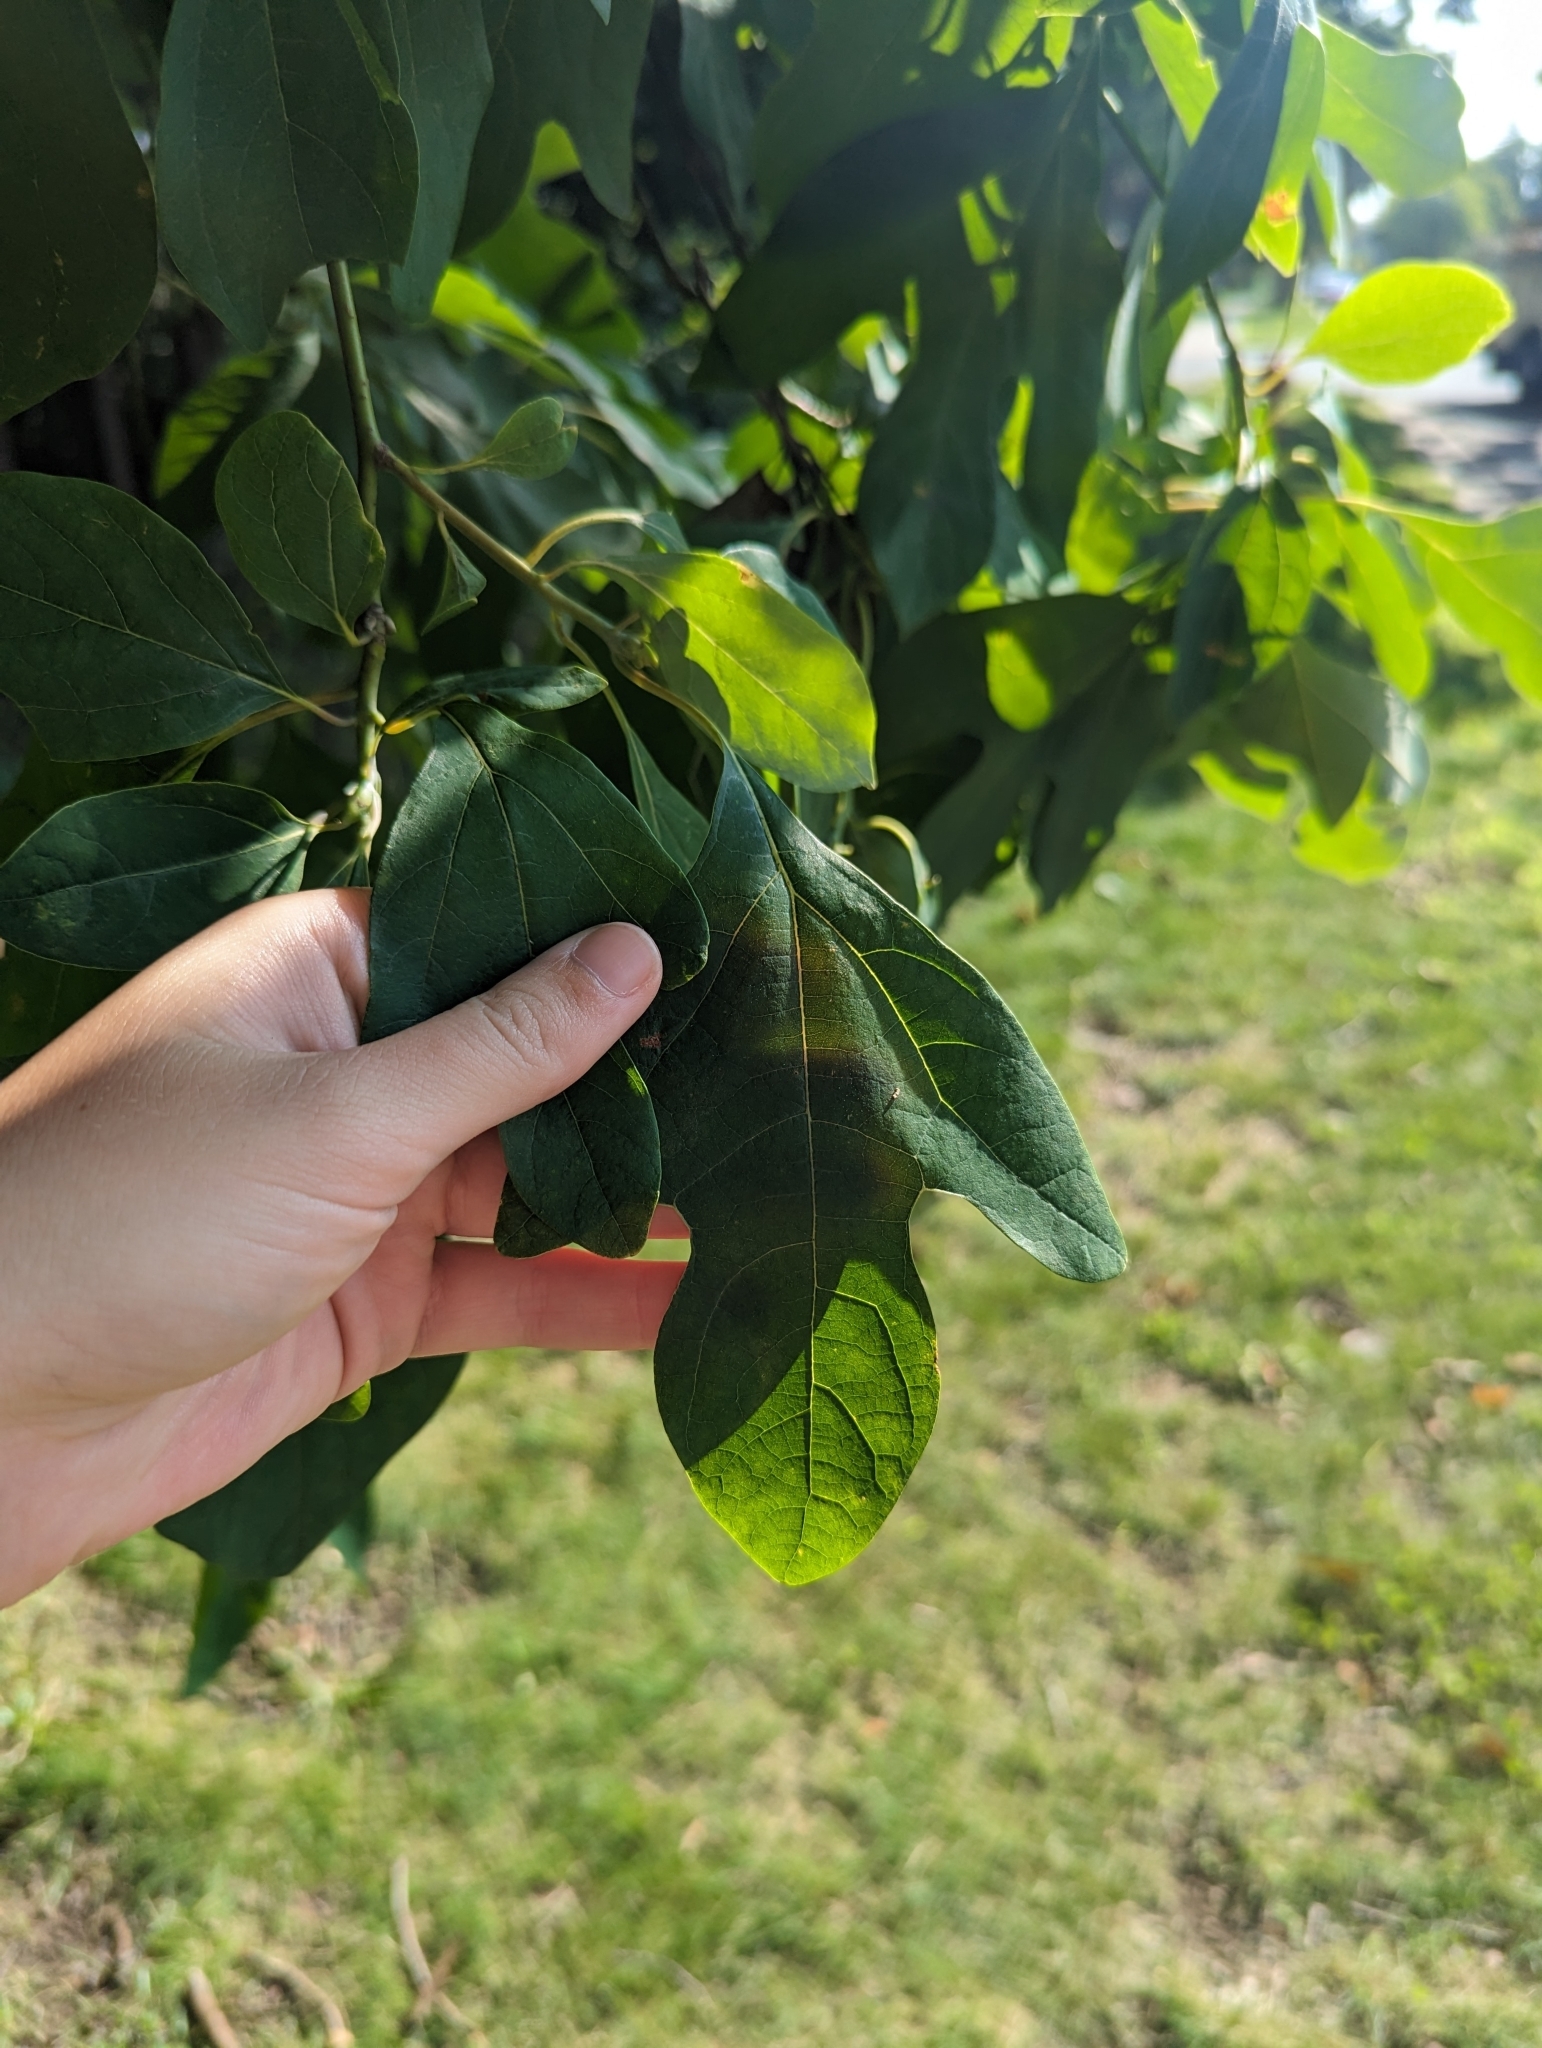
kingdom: Plantae
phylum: Tracheophyta
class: Magnoliopsida
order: Laurales
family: Lauraceae
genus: Sassafras
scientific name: Sassafras albidum
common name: Sassafras
